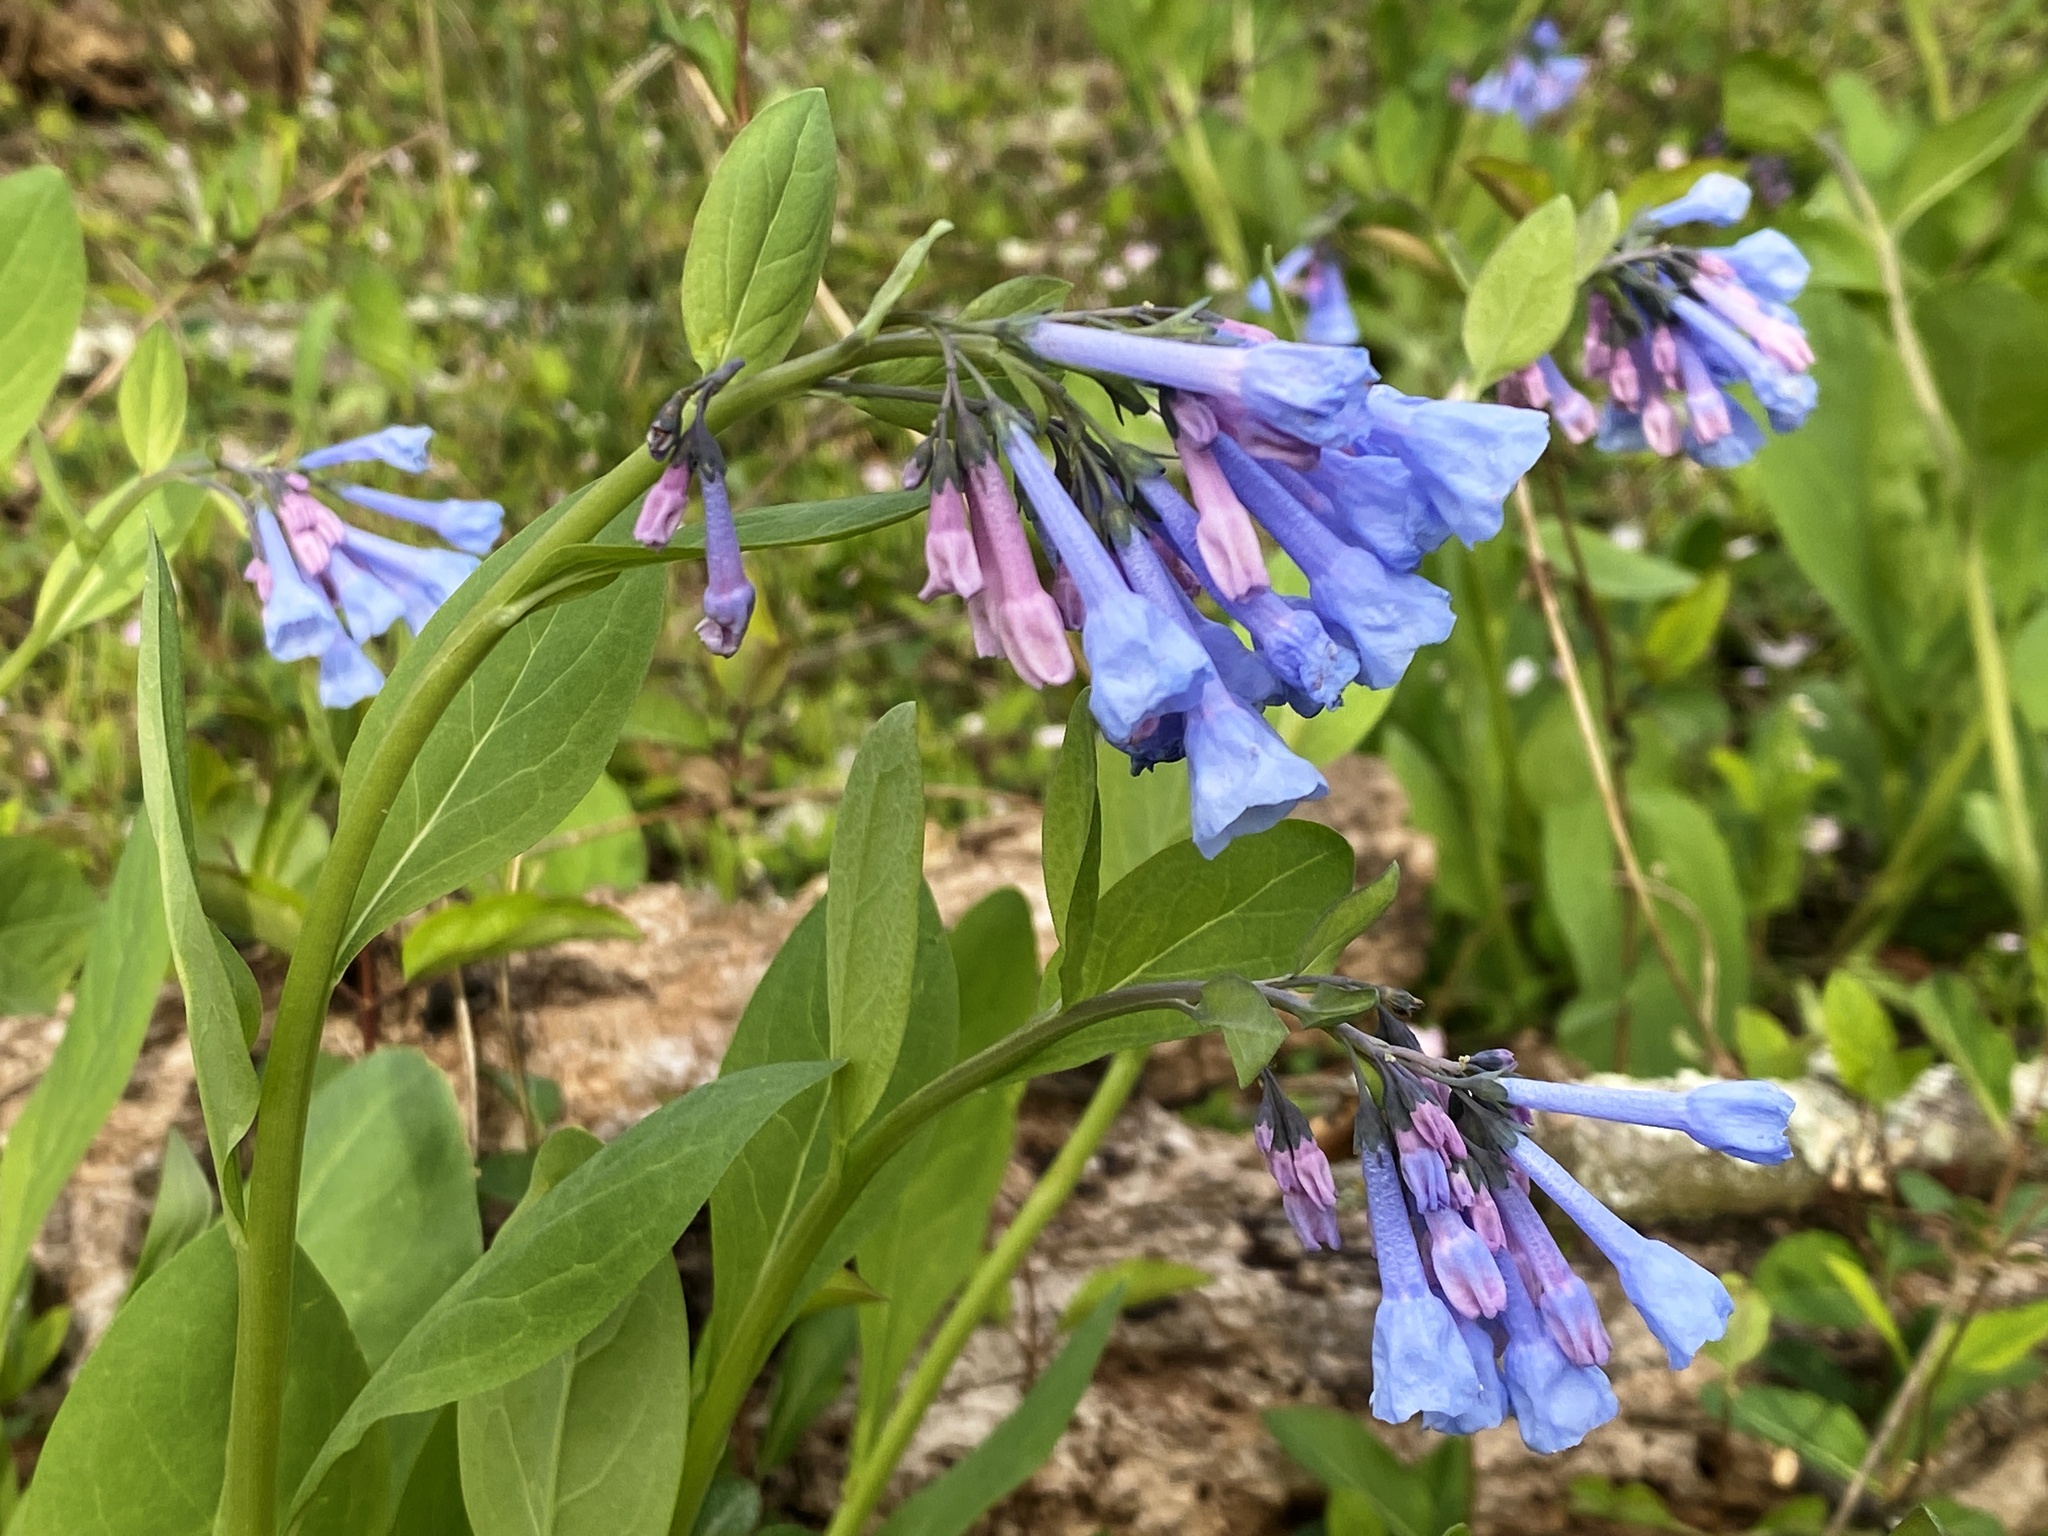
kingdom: Plantae
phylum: Tracheophyta
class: Magnoliopsida
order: Boraginales
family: Boraginaceae
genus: Mertensia
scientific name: Mertensia virginica
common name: Virginia bluebells
